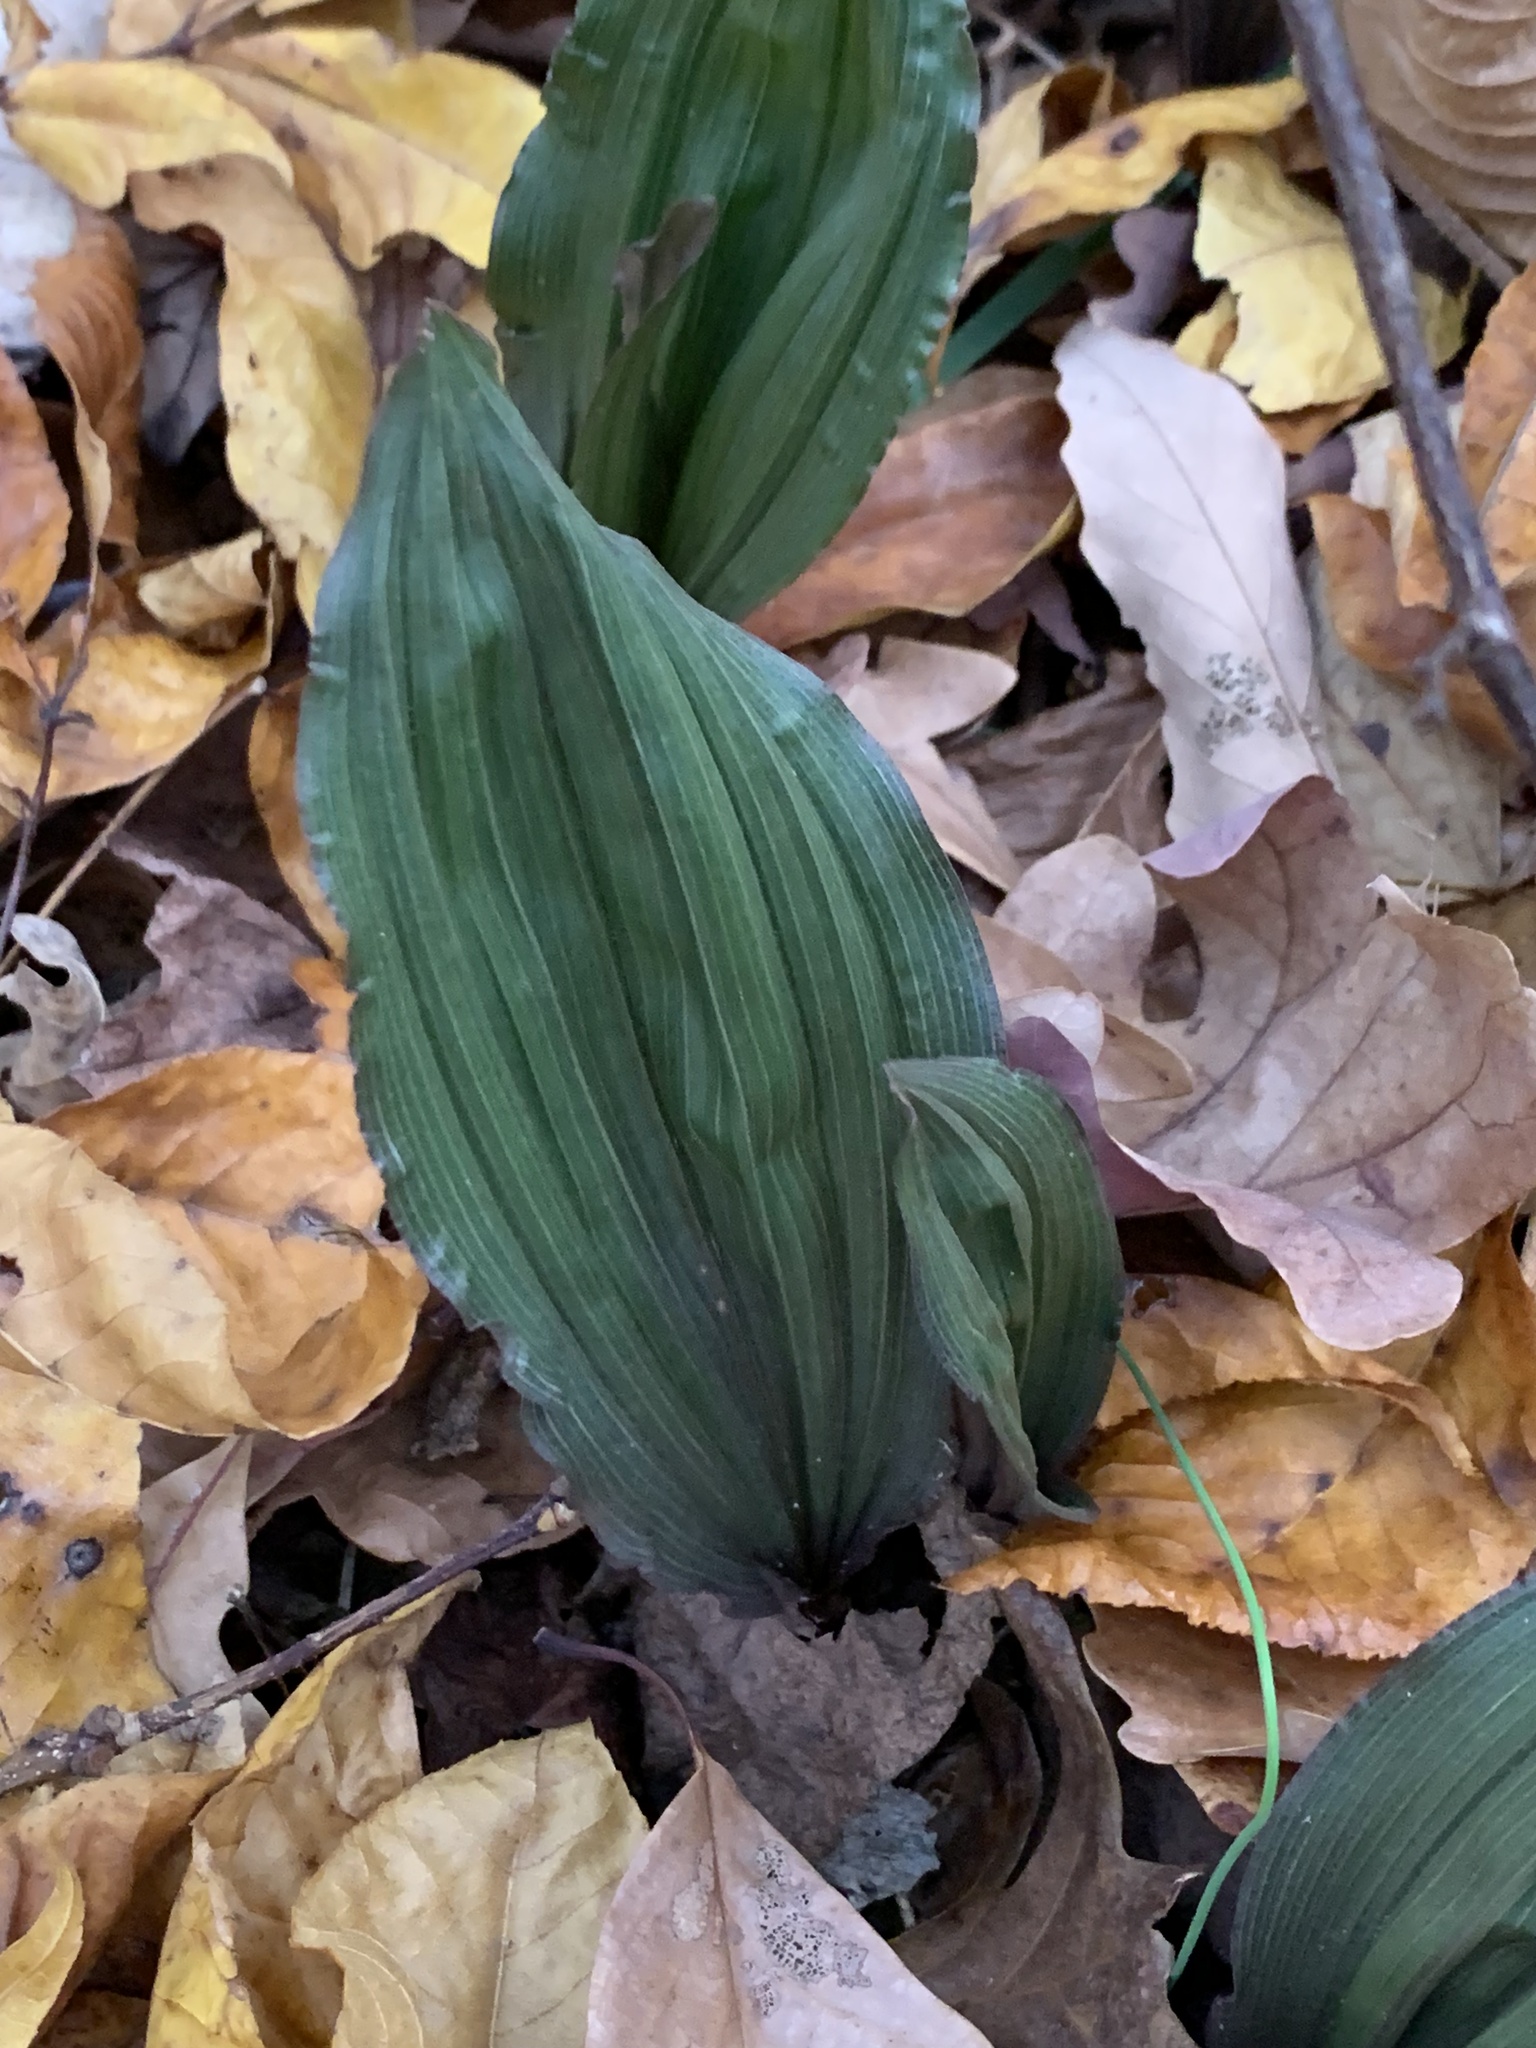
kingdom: Plantae
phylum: Tracheophyta
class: Liliopsida
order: Asparagales
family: Orchidaceae
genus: Aplectrum
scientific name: Aplectrum hyemale
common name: Adam-and-eve
